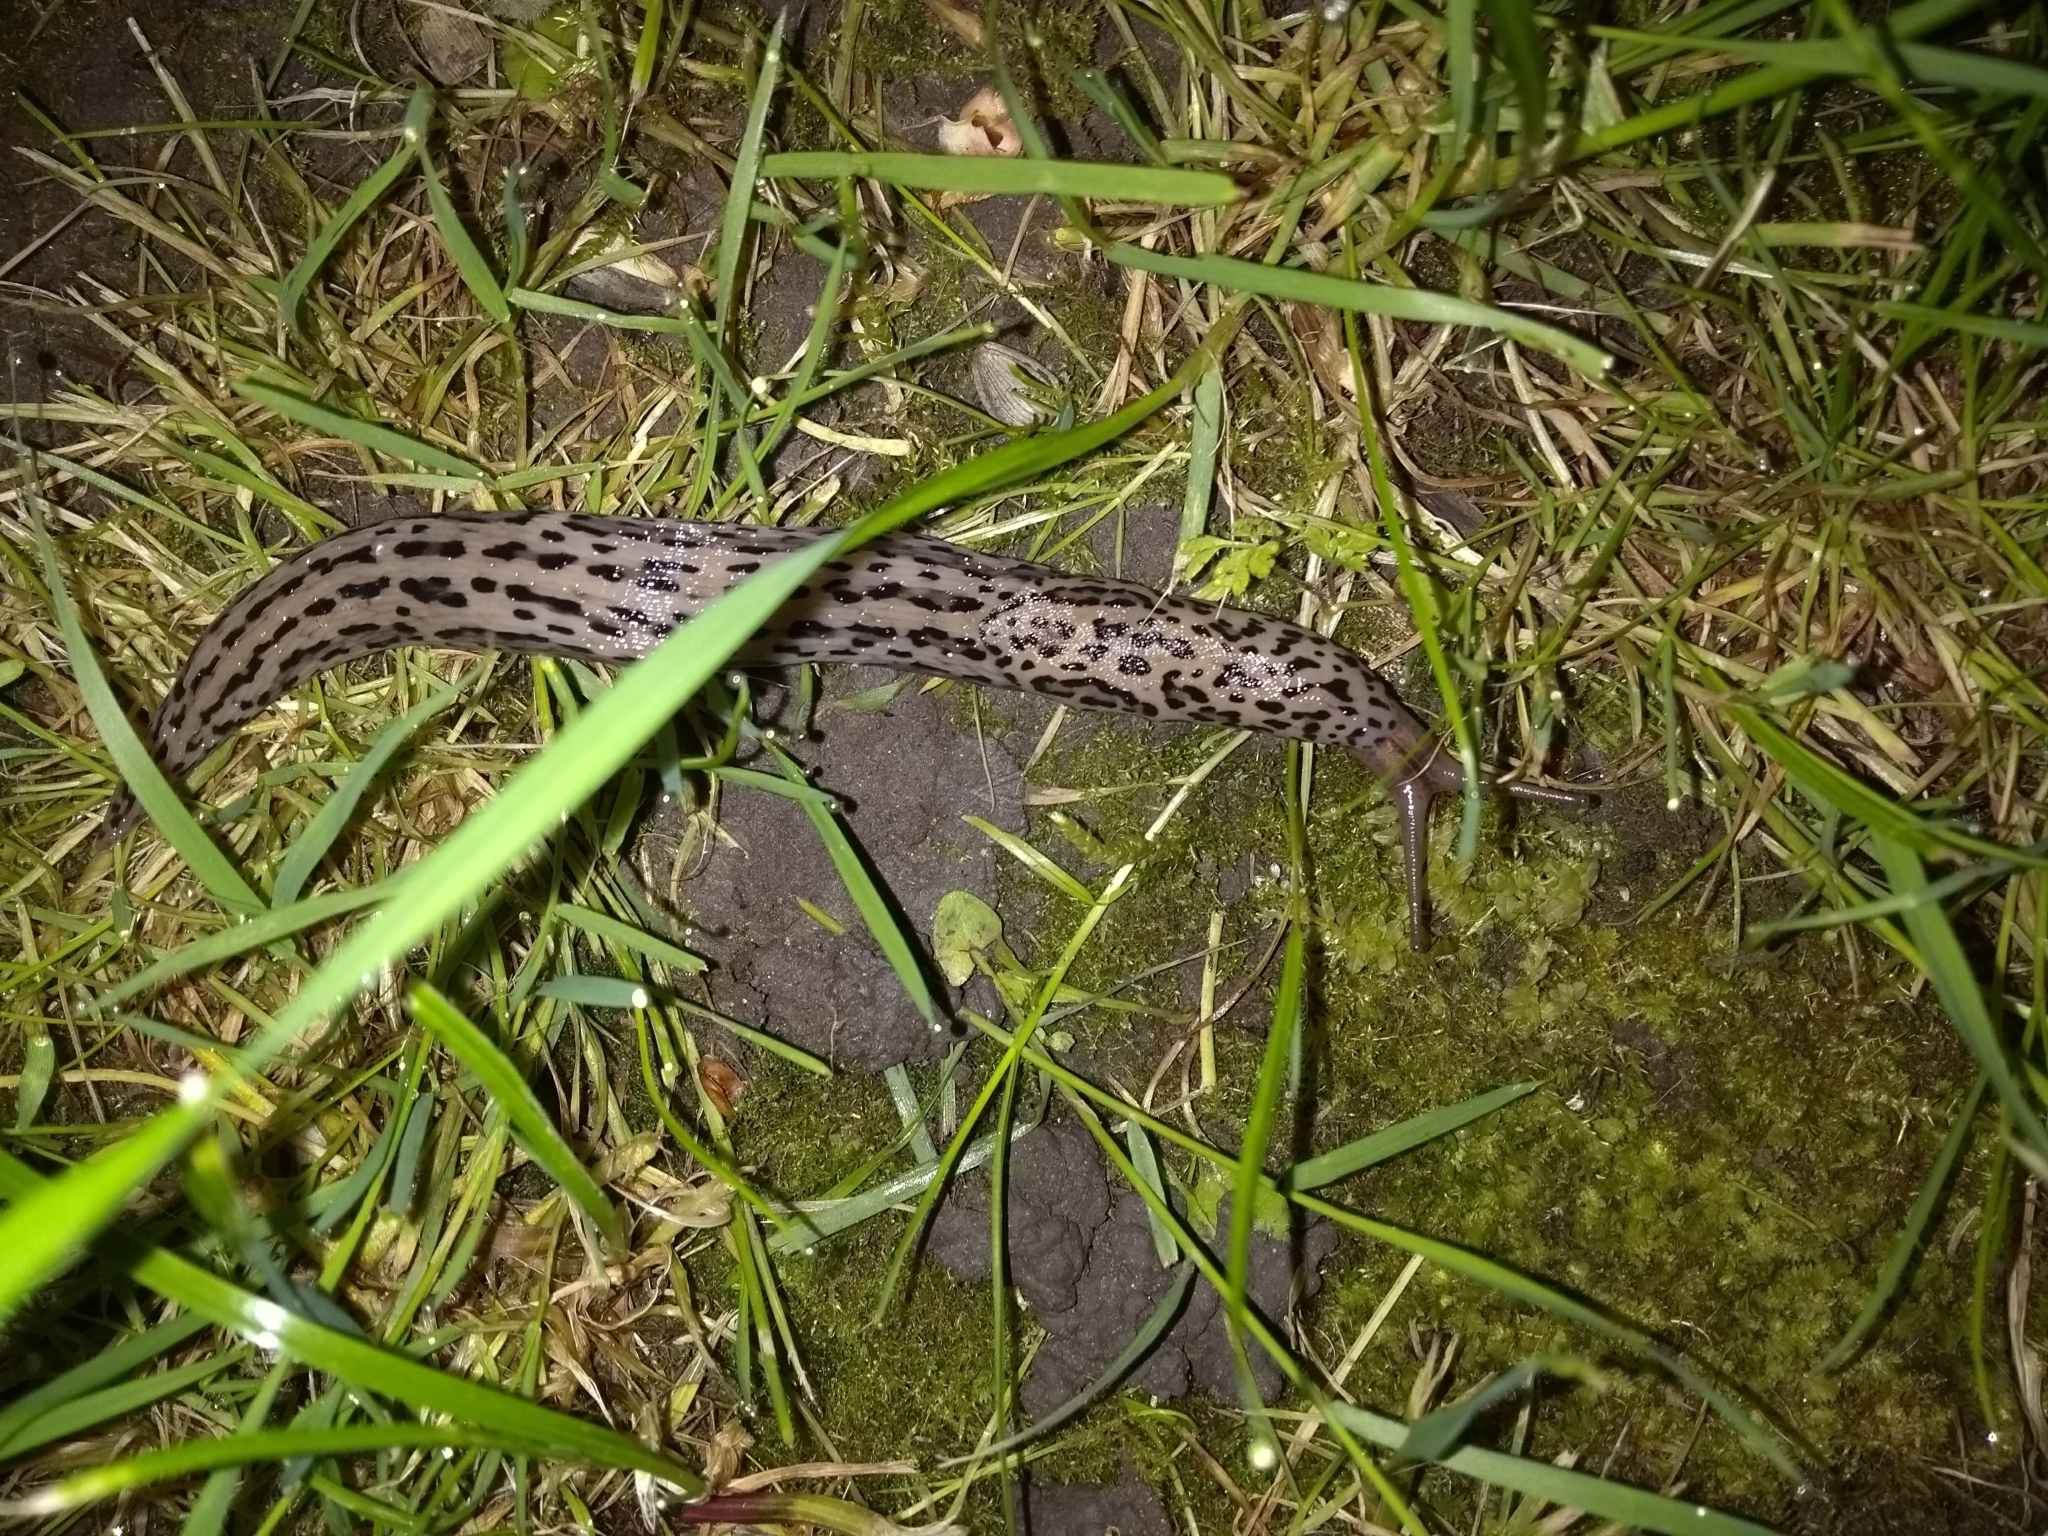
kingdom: Animalia
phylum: Mollusca
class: Gastropoda
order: Stylommatophora
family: Limacidae
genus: Limax
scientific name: Limax maximus
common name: Great grey slug
